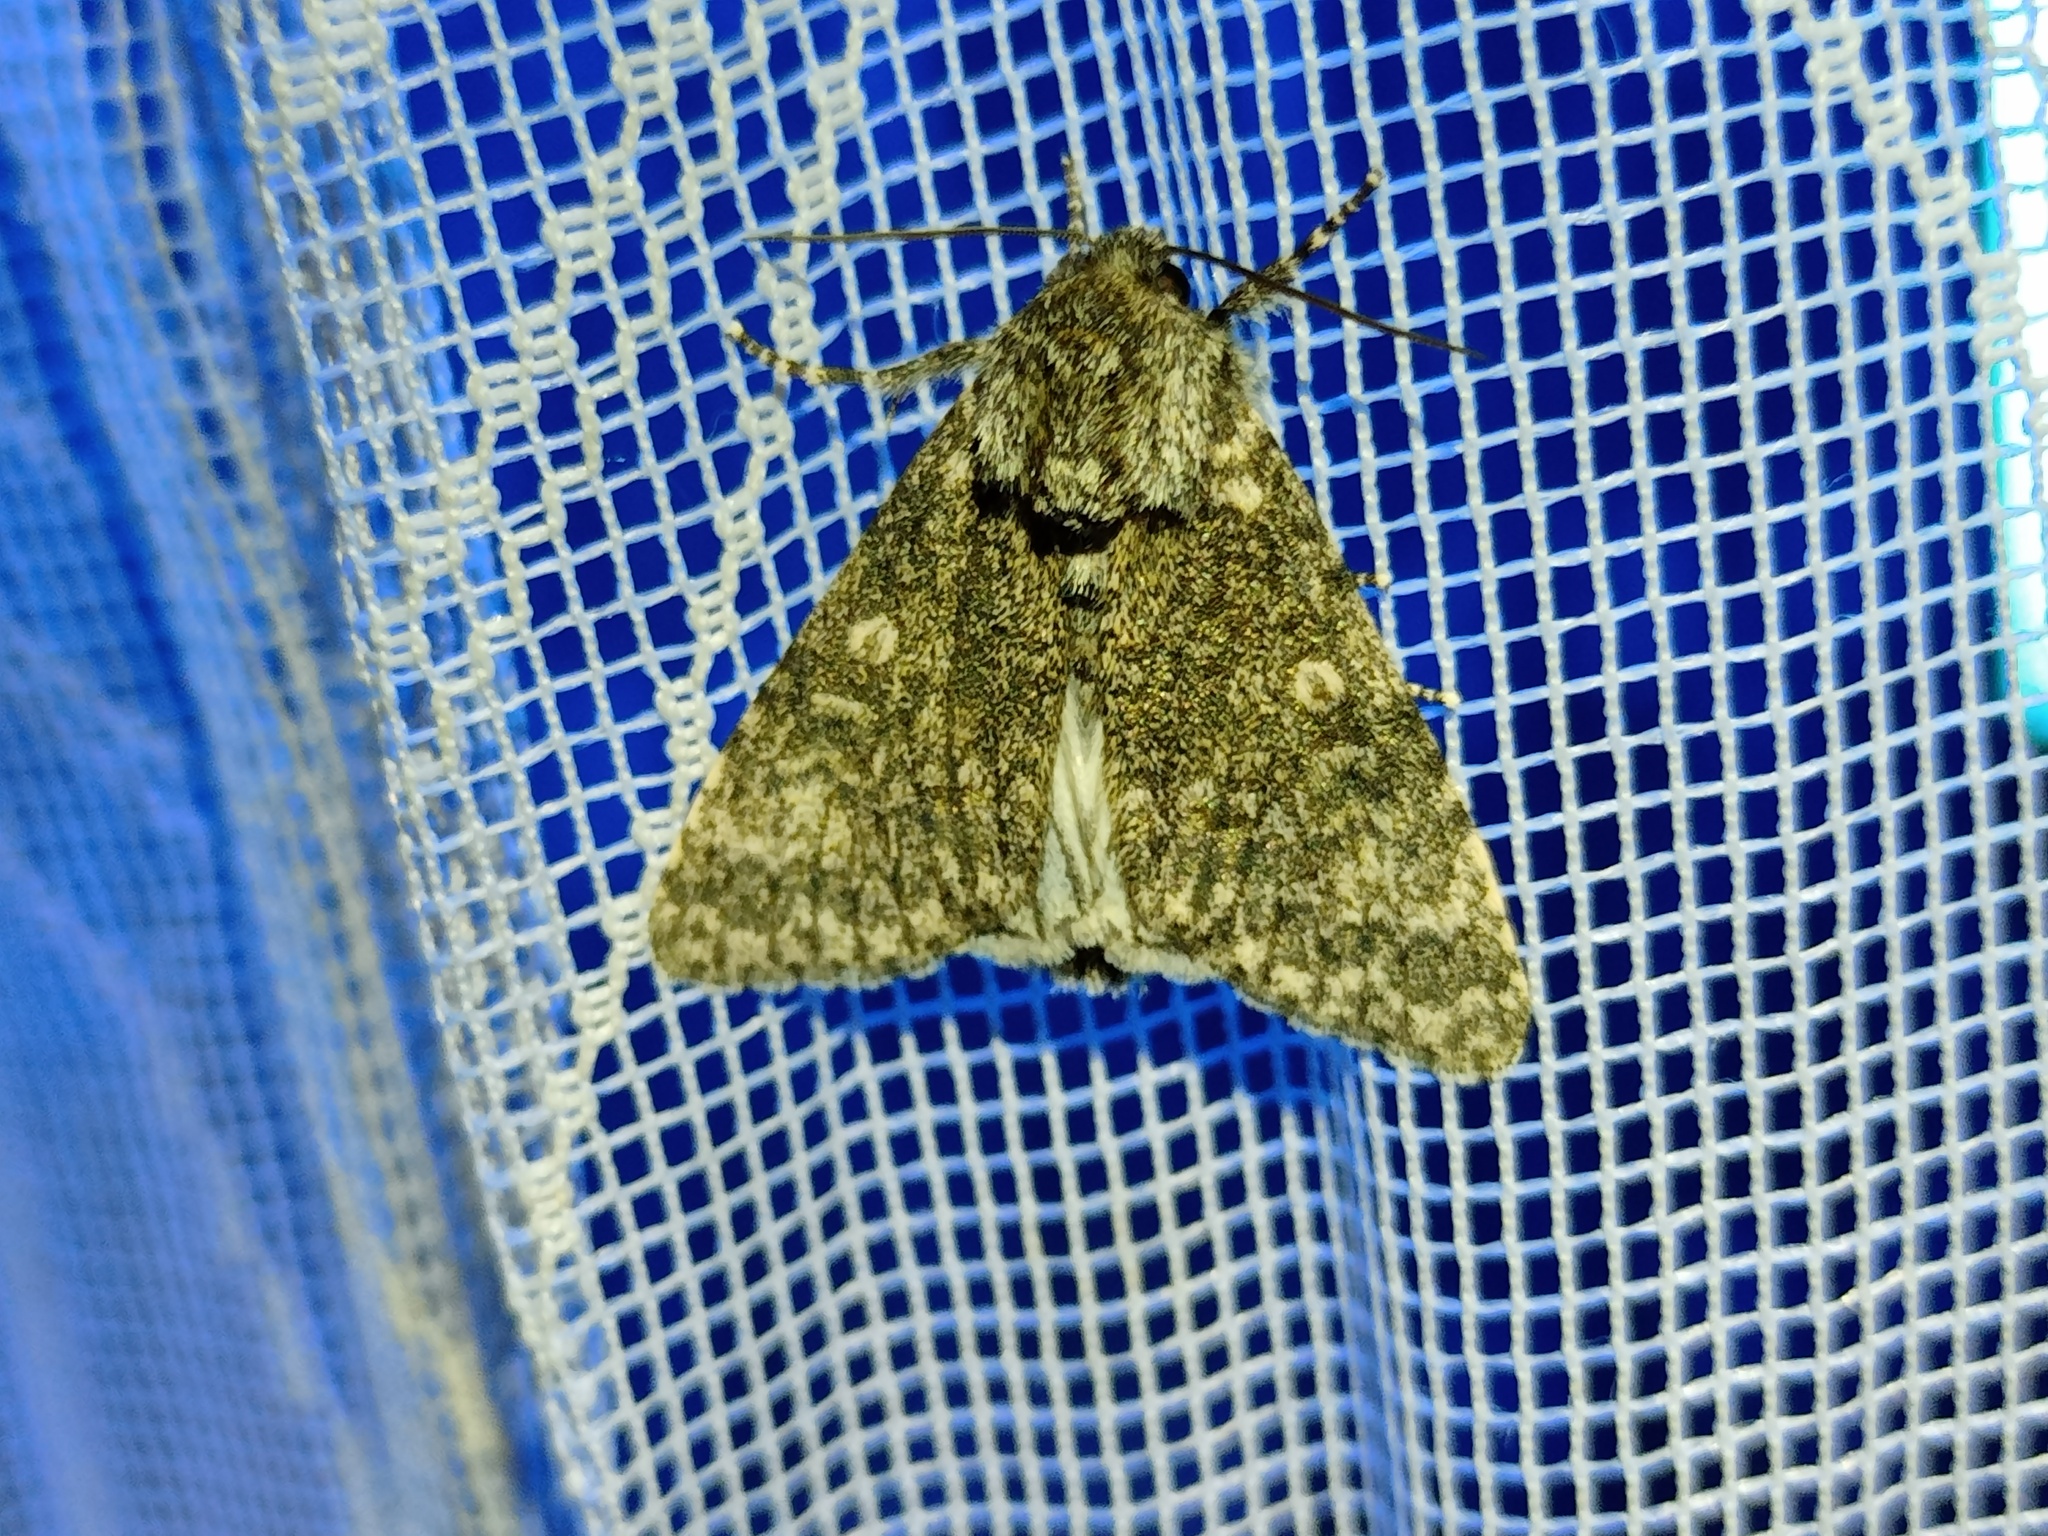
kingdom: Animalia
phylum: Arthropoda
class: Insecta
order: Lepidoptera
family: Noctuidae
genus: Acronicta
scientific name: Acronicta megacephala
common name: Poplar grey
